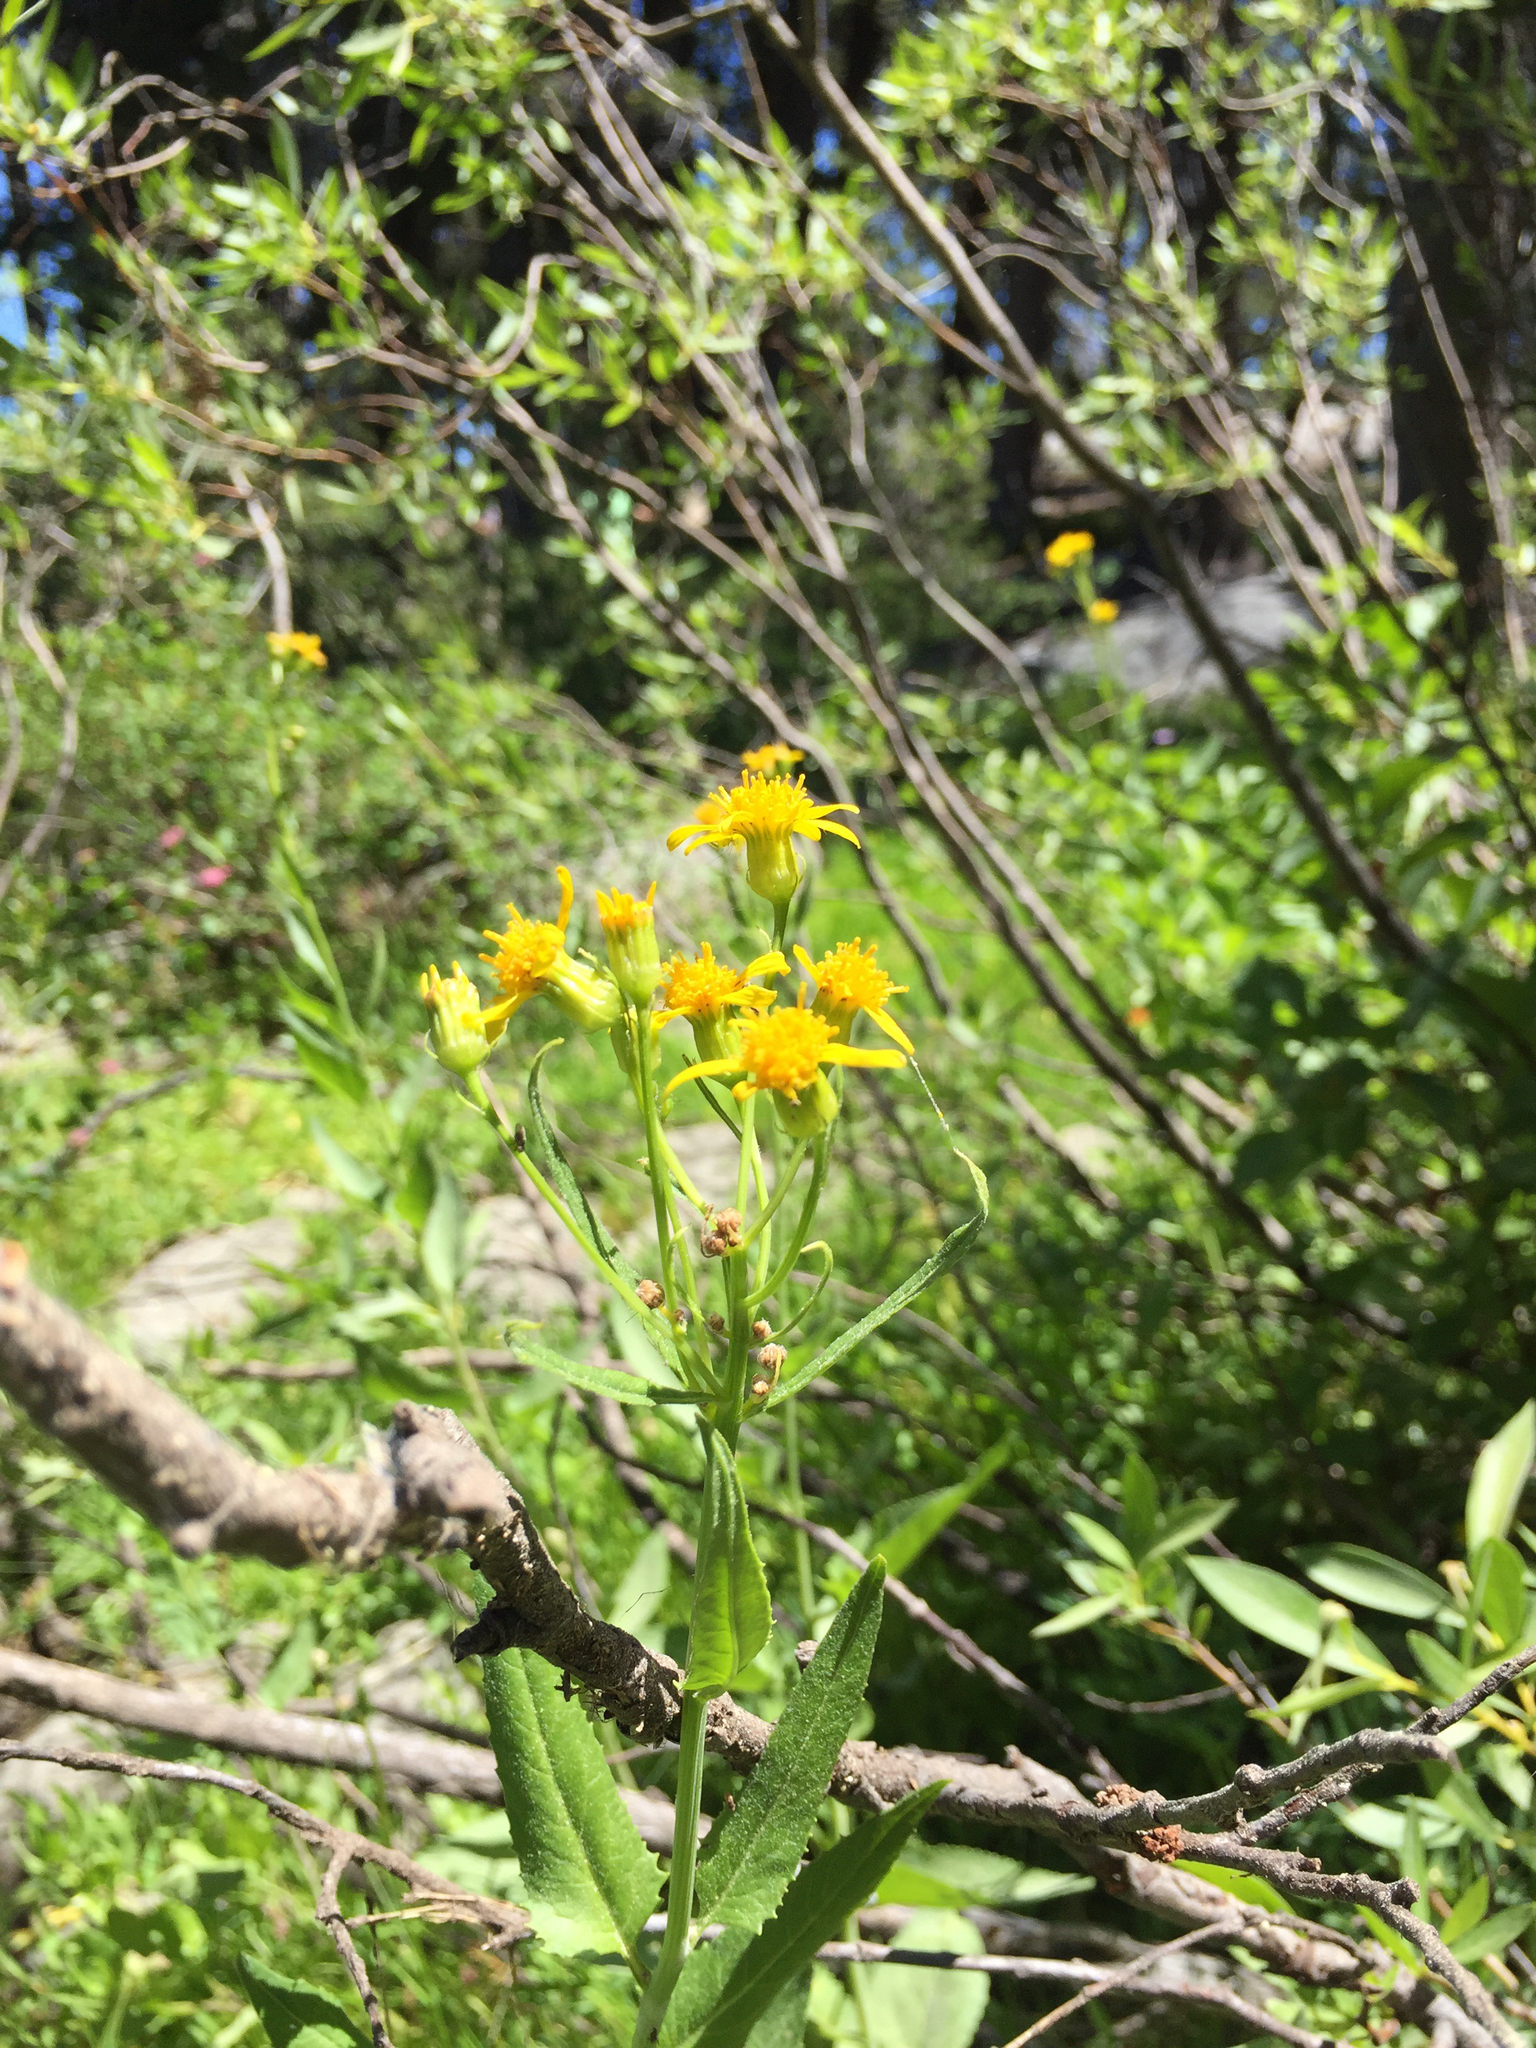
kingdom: Plantae
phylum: Tracheophyta
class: Magnoliopsida
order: Asterales
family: Asteraceae
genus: Senecio
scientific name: Senecio triangularis
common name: Arrowleaf butterweed
